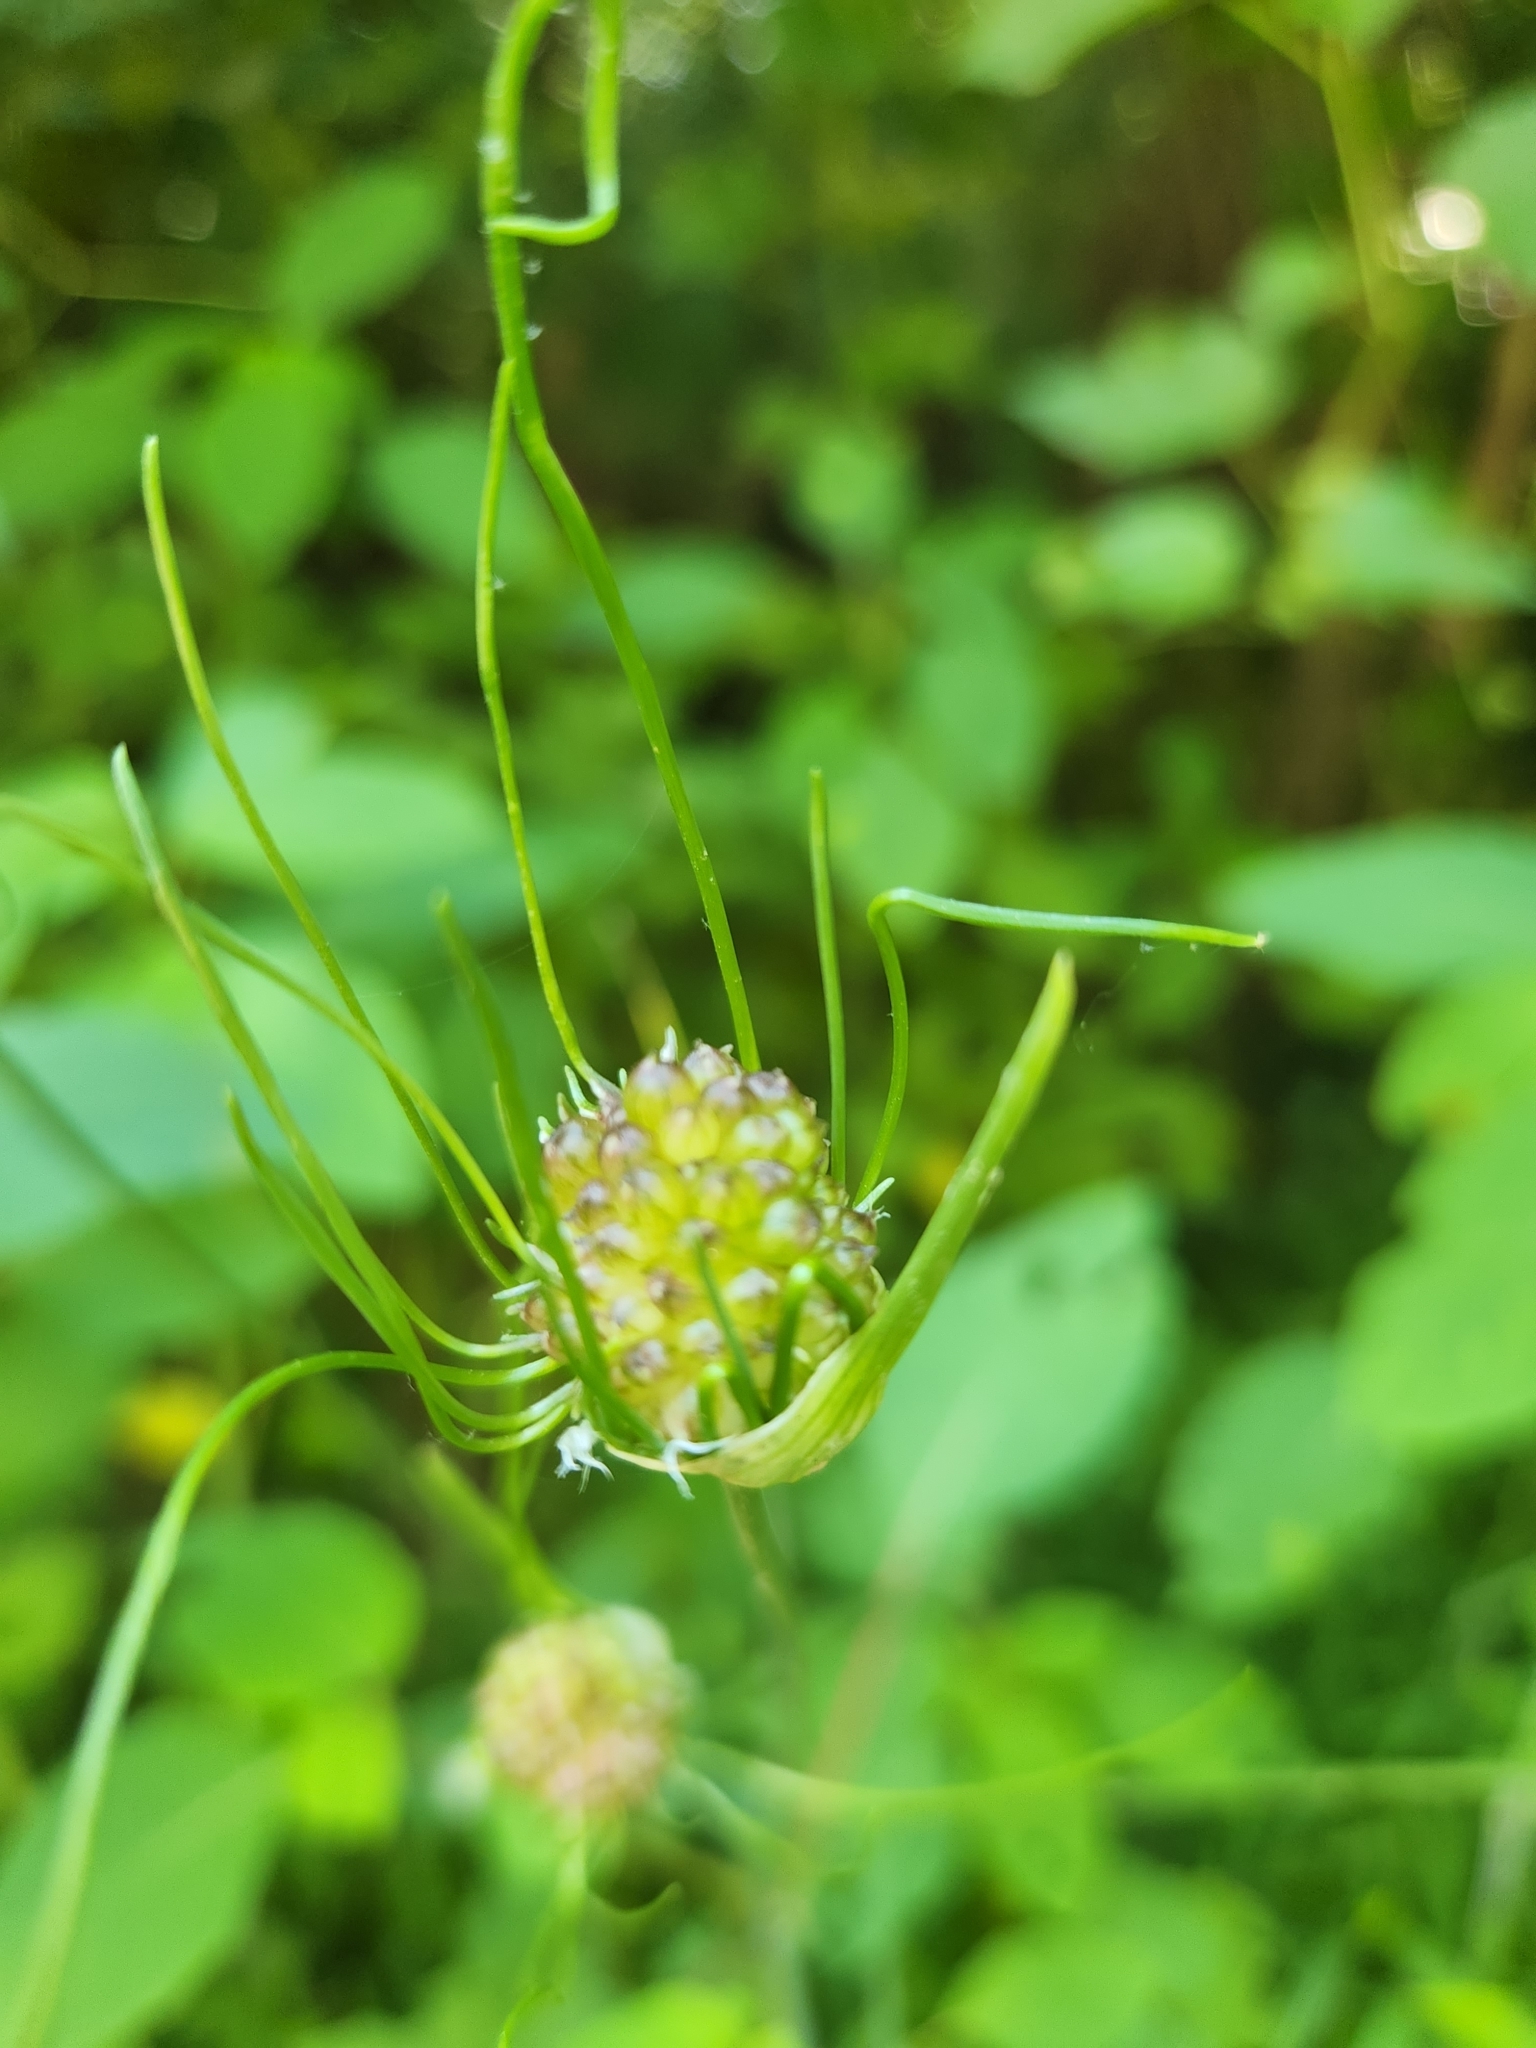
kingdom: Plantae
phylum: Tracheophyta
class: Liliopsida
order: Asparagales
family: Amaryllidaceae
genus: Allium
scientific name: Allium vineale
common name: Crow garlic
